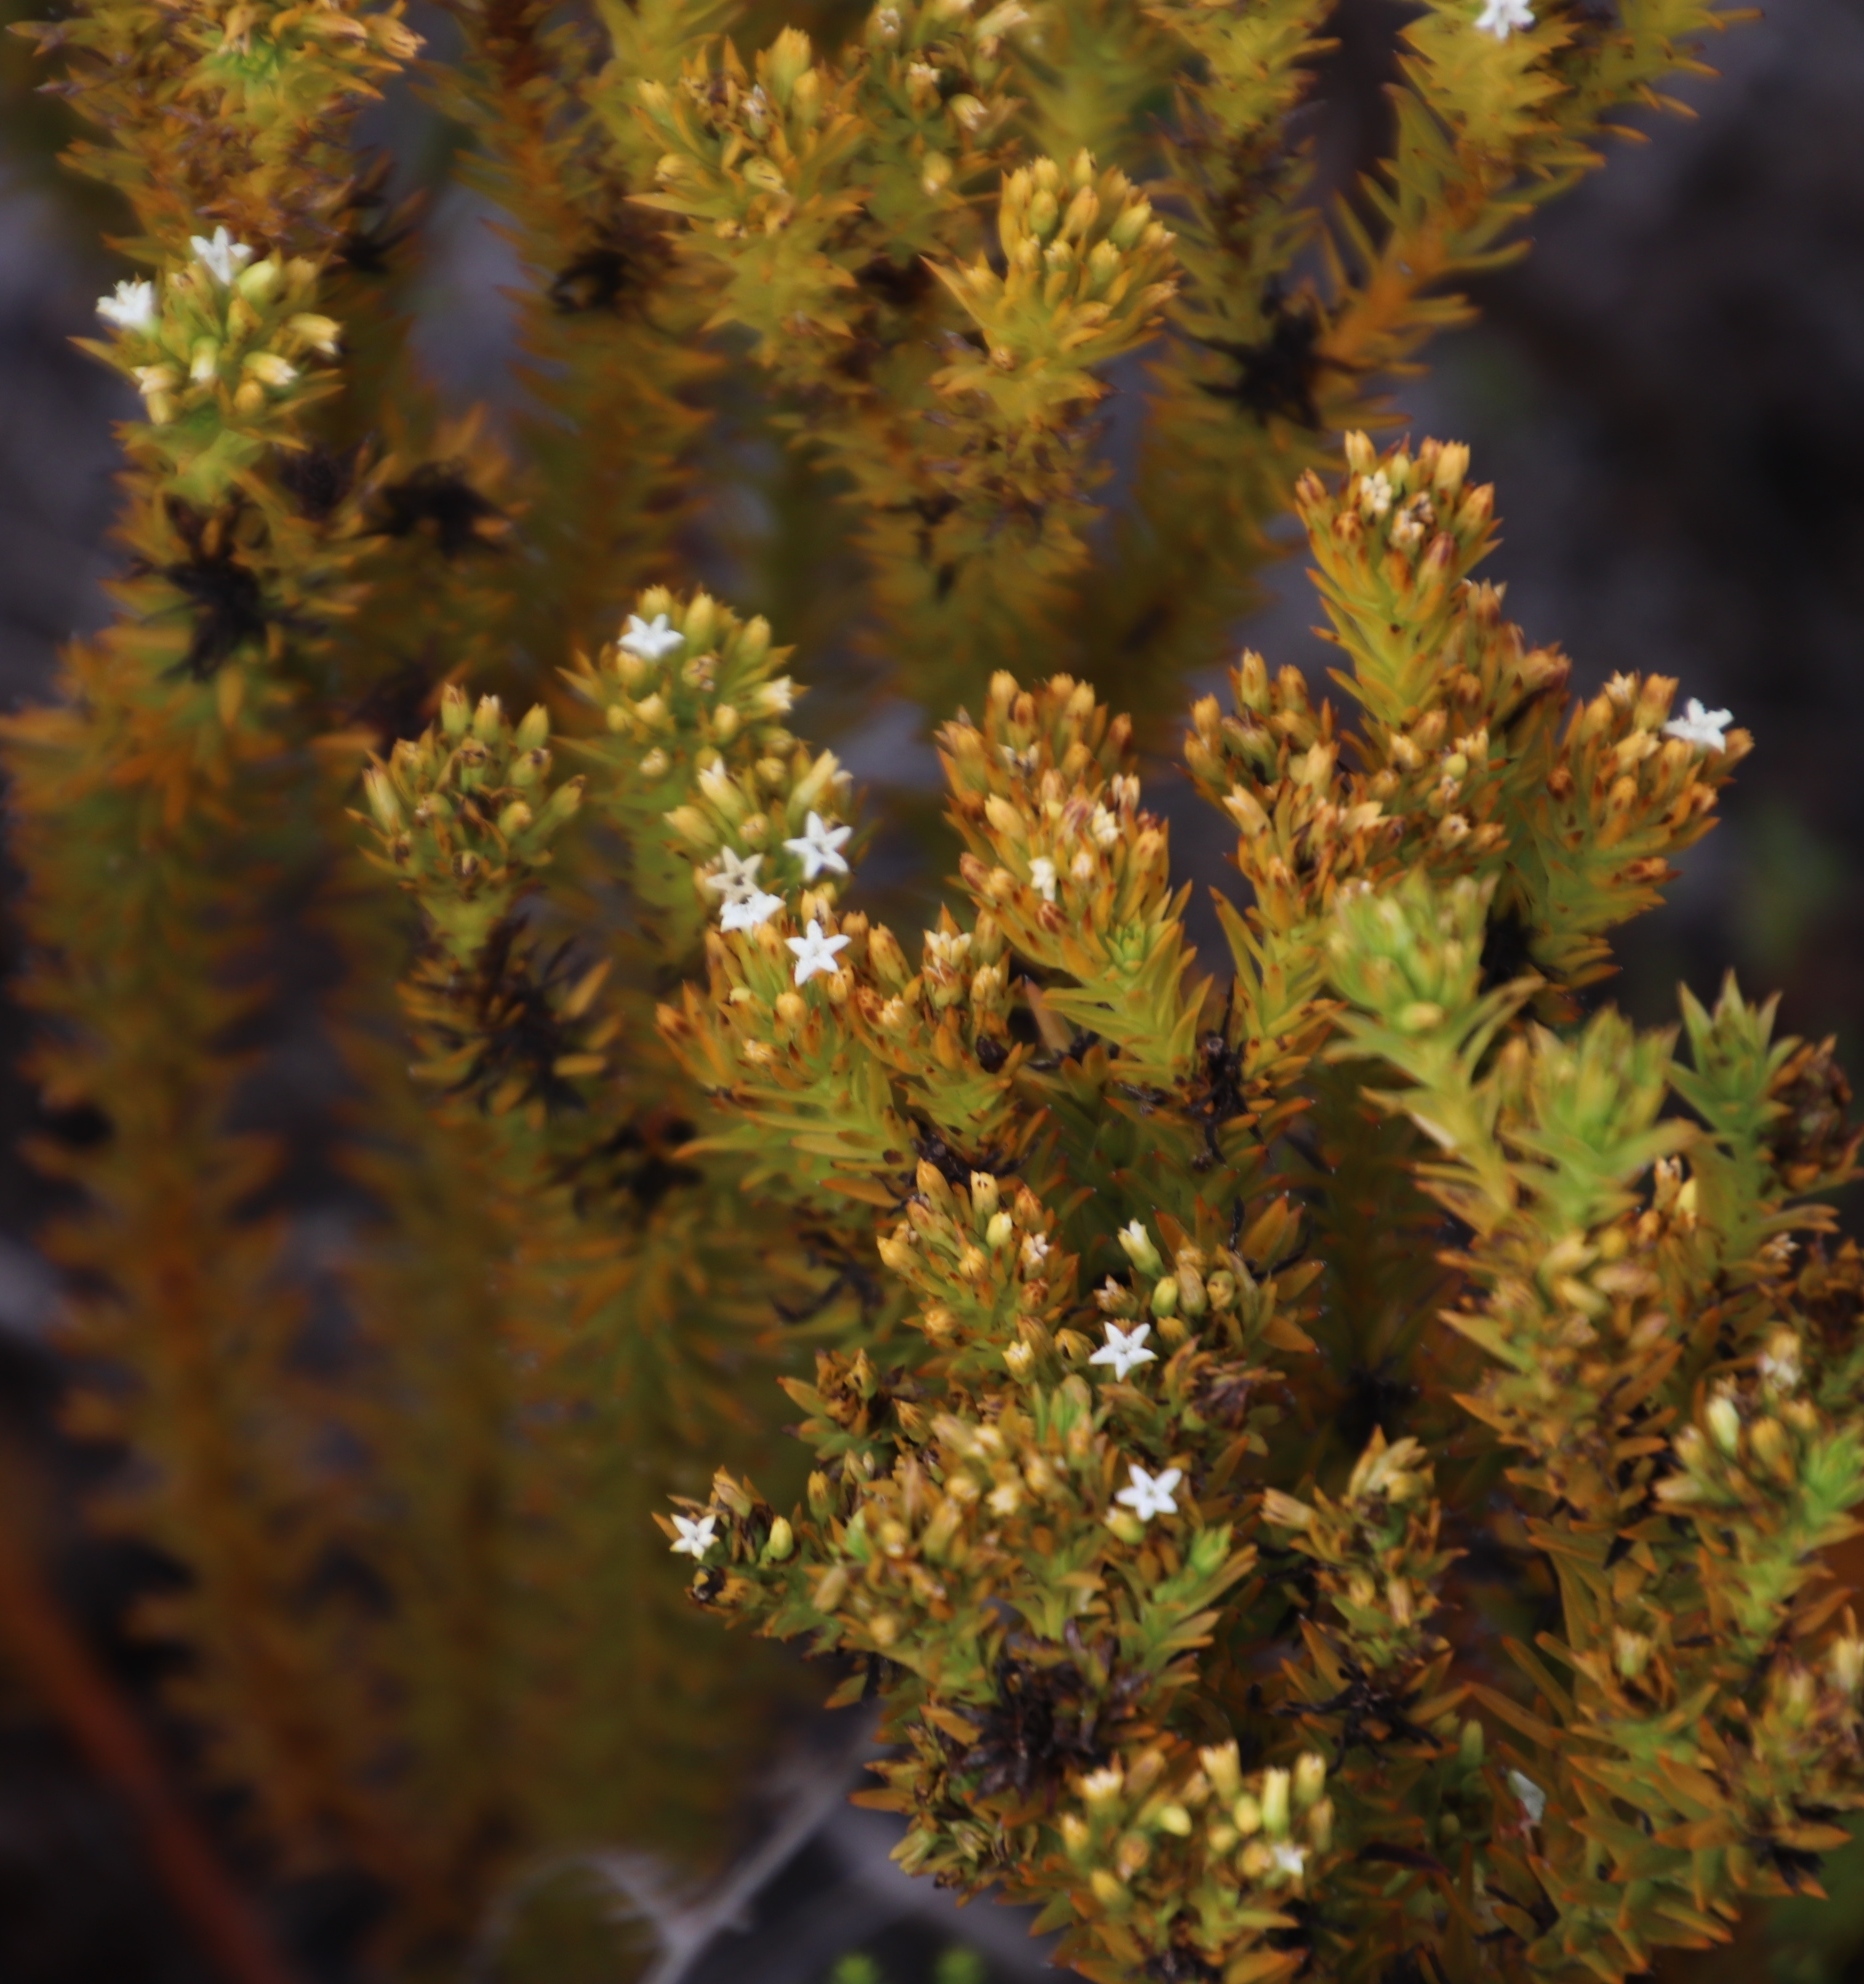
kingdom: Plantae
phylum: Tracheophyta
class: Magnoliopsida
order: Santalales
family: Thesiaceae
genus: Thesium
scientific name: Thesium viridifolium
